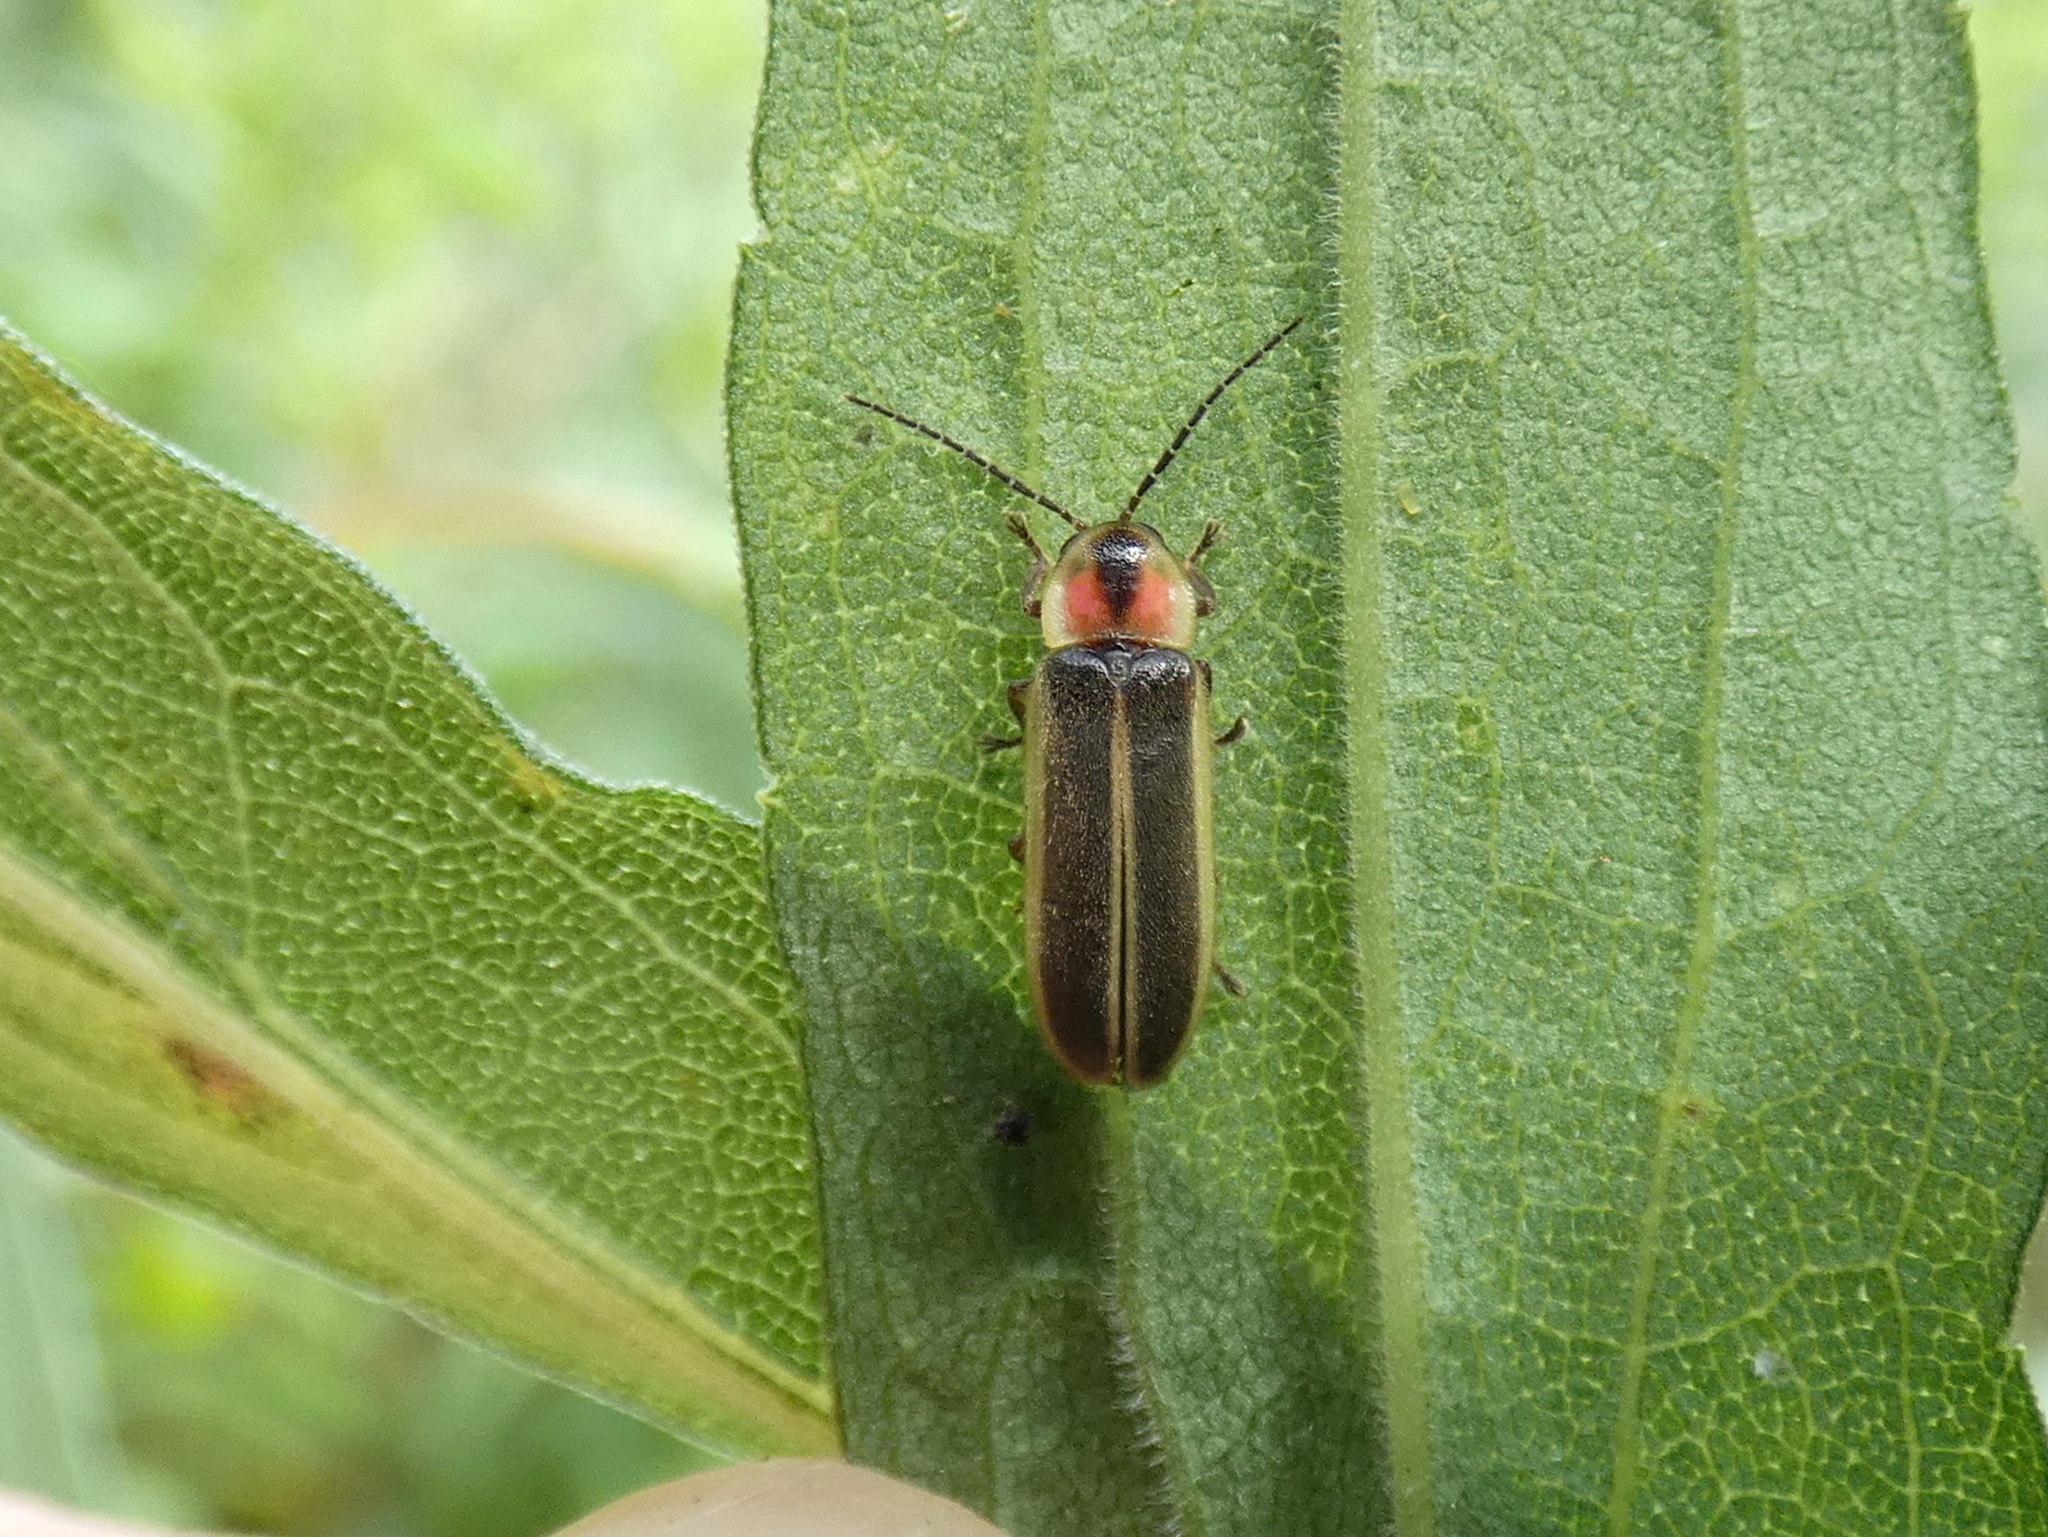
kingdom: Animalia
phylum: Arthropoda
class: Insecta
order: Coleoptera
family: Lampyridae
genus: Photinus
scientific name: Photinus scintillans
